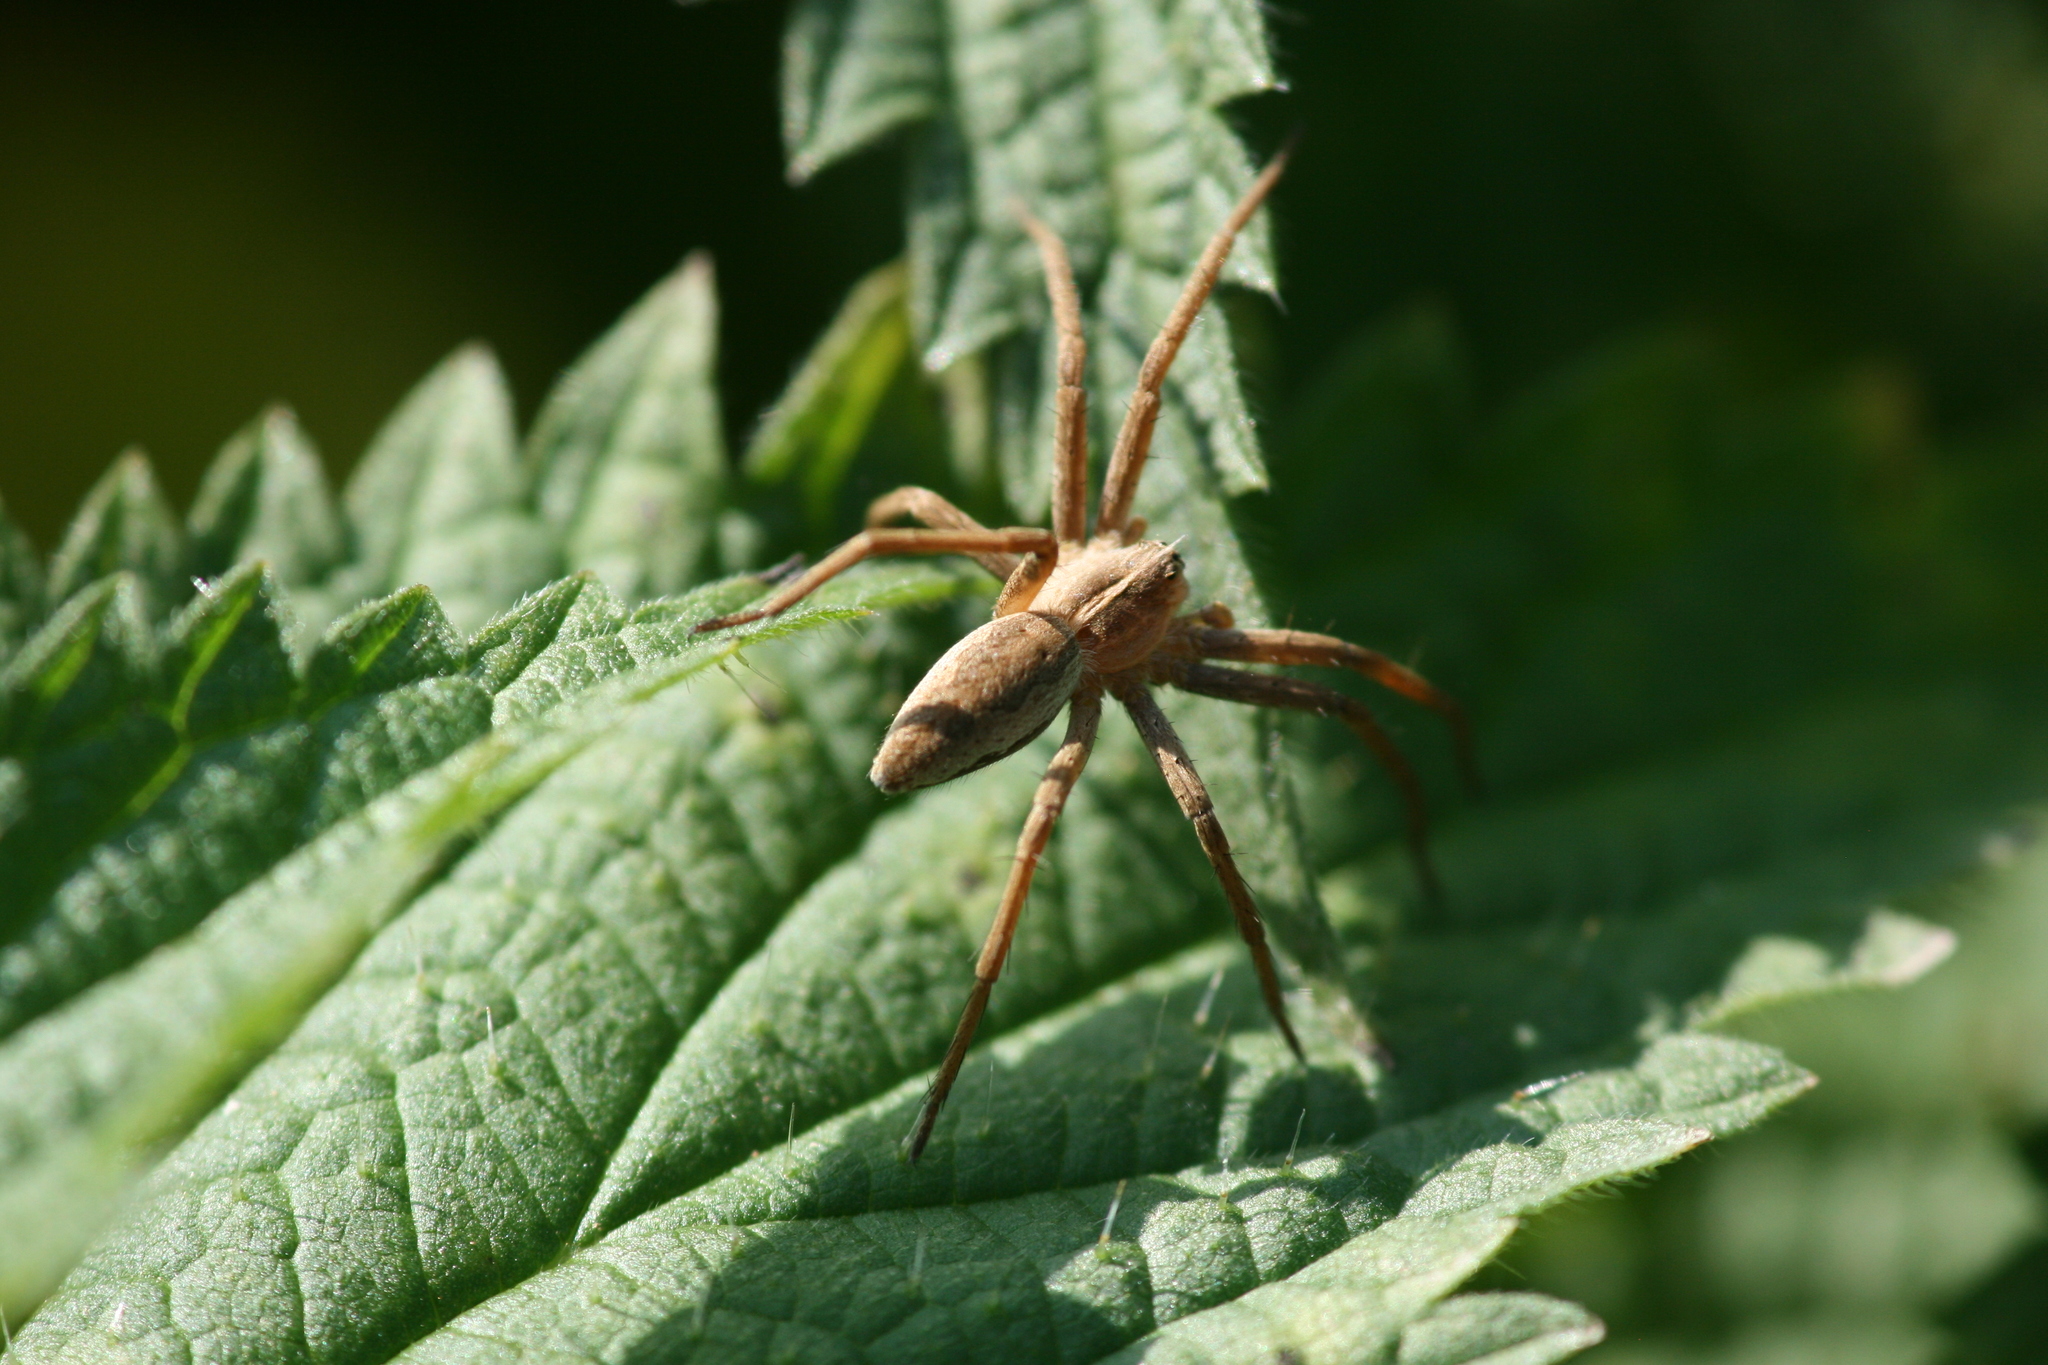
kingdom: Animalia
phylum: Arthropoda
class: Arachnida
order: Araneae
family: Pisauridae
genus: Pisaura
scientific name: Pisaura mirabilis
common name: Tent spider
